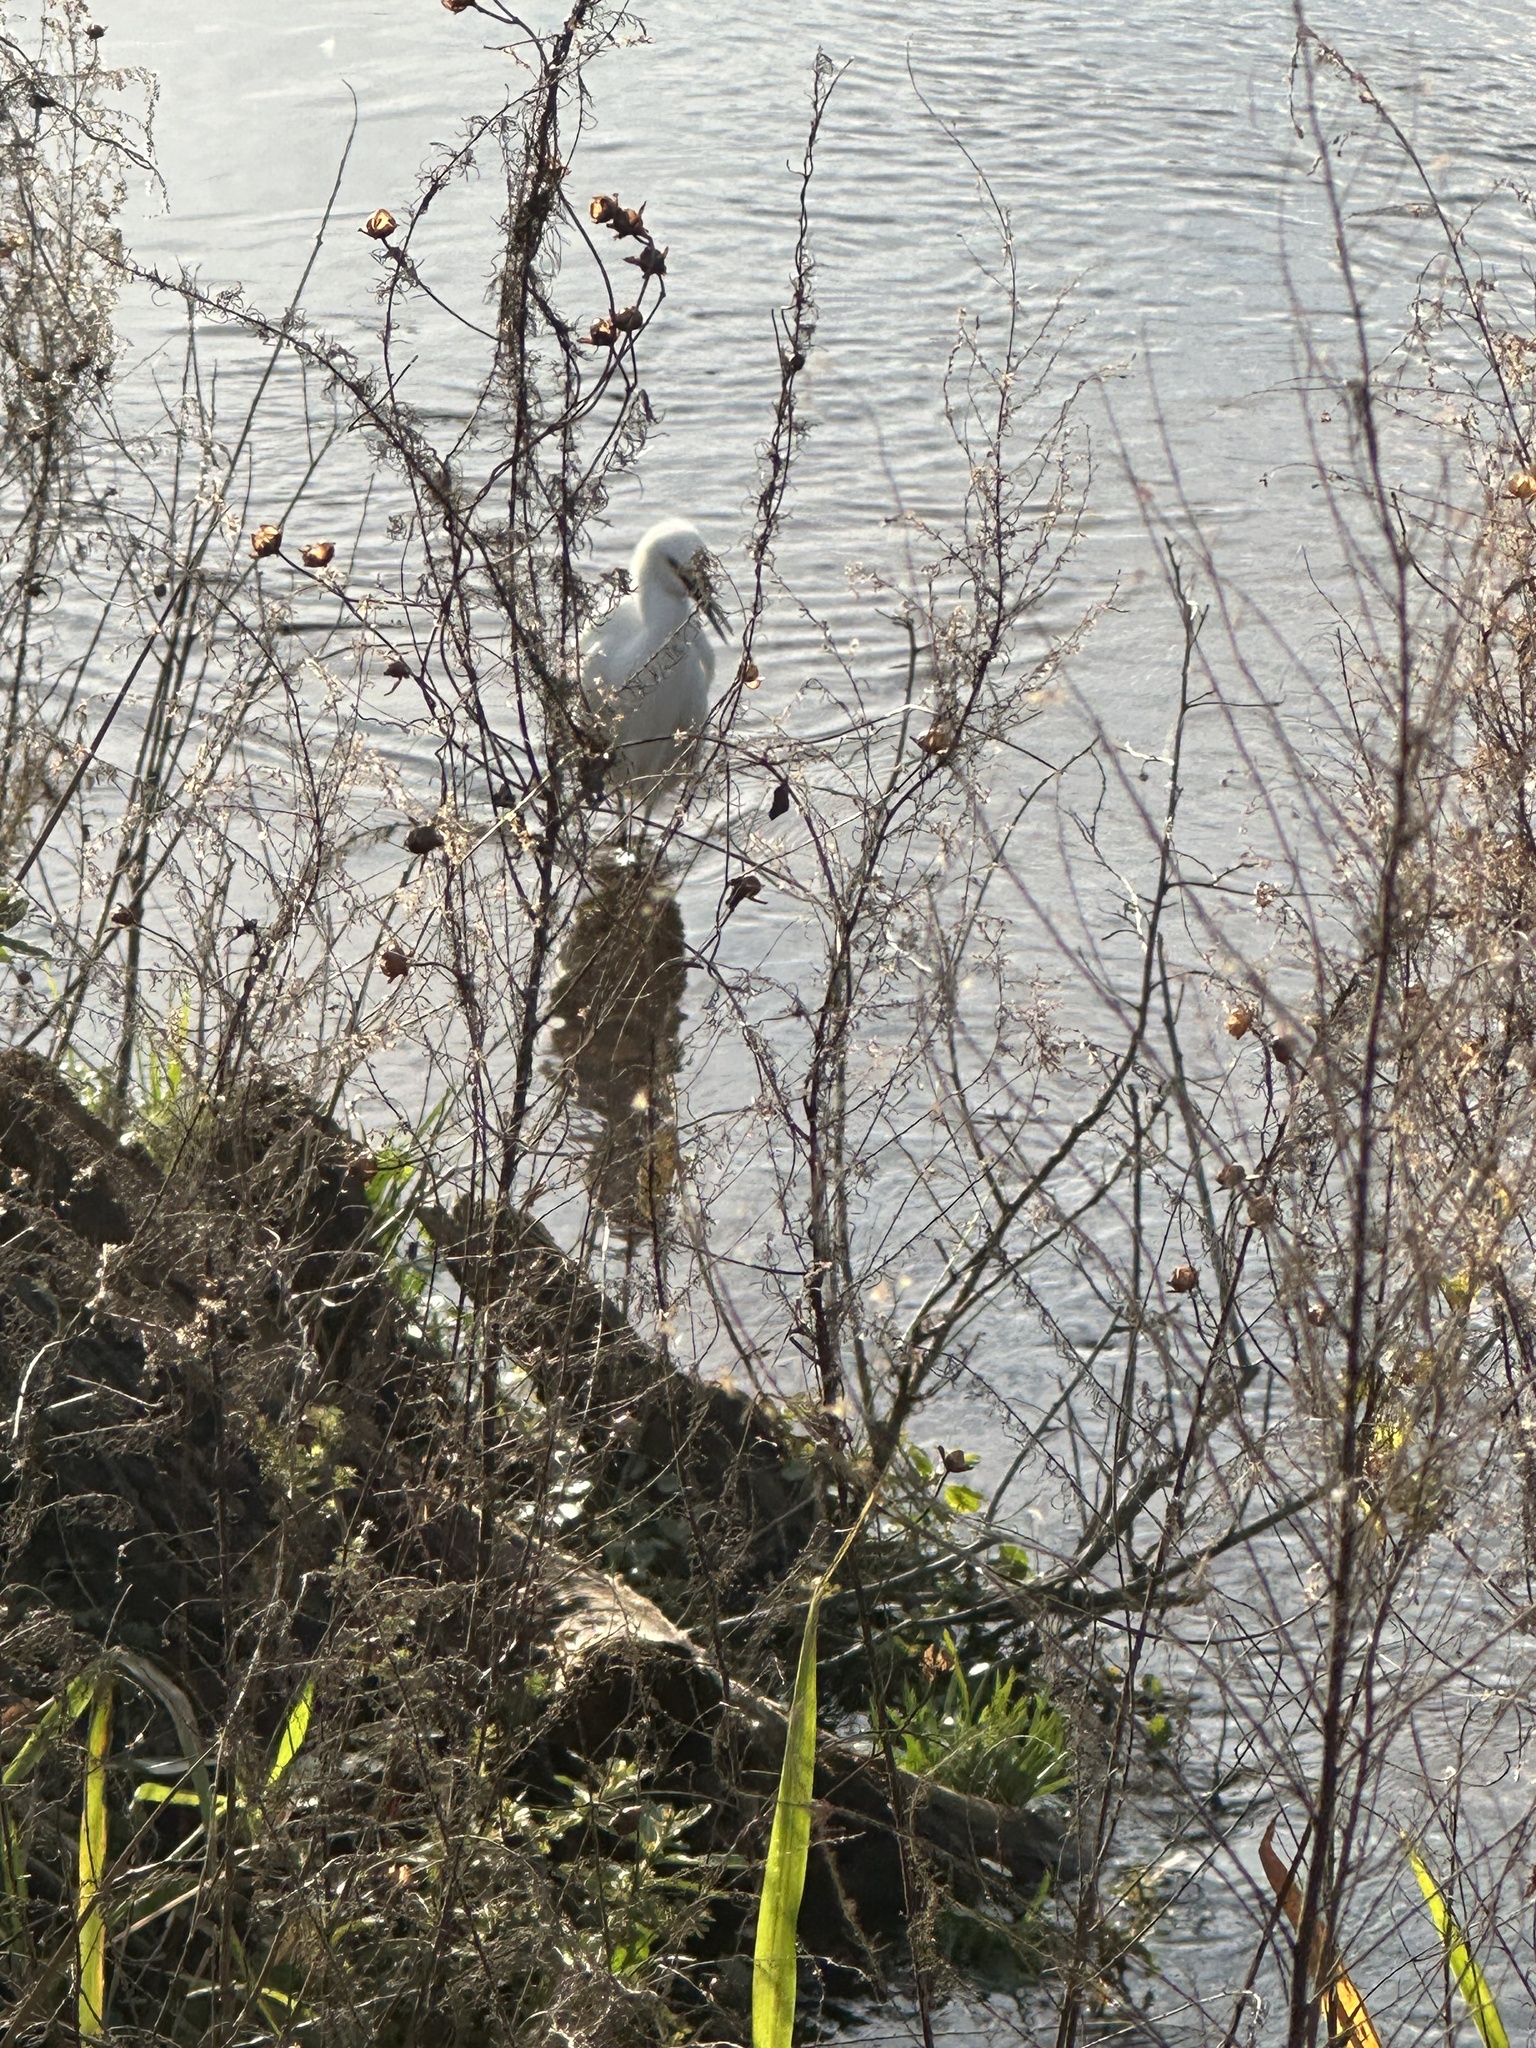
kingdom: Animalia
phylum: Chordata
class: Aves
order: Pelecaniformes
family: Ardeidae
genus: Egretta
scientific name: Egretta thula
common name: Snowy egret
